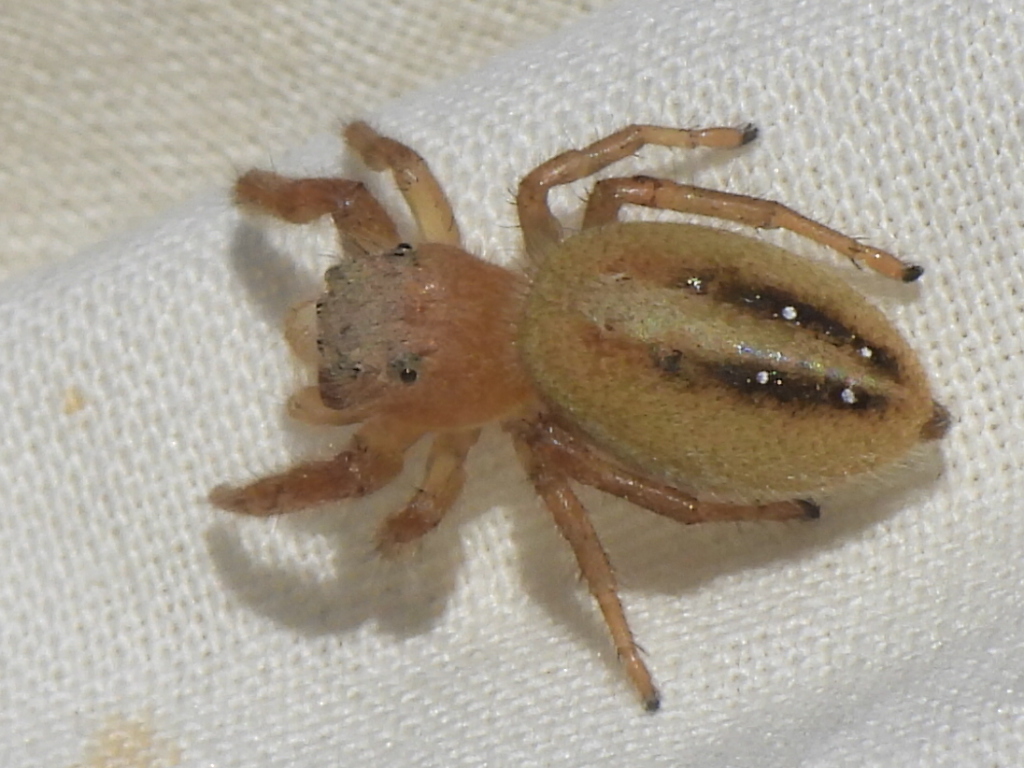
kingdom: Animalia
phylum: Arthropoda
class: Arachnida
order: Araneae
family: Salticidae
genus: Phidippus
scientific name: Phidippus pius
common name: Jumping spiders
